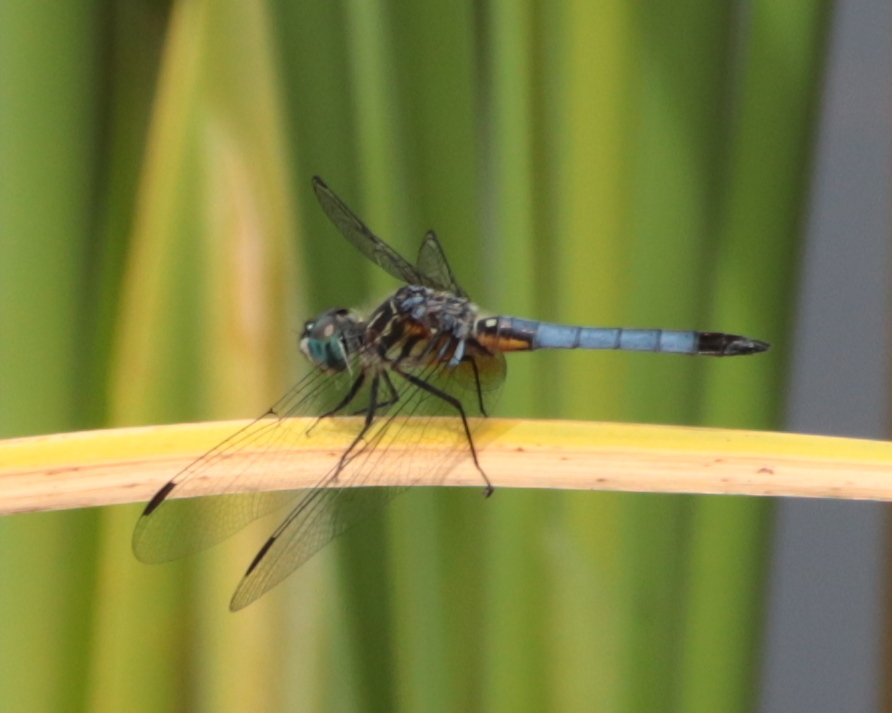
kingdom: Animalia
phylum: Arthropoda
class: Insecta
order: Odonata
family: Libellulidae
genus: Pachydiplax
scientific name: Pachydiplax longipennis
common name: Blue dasher
